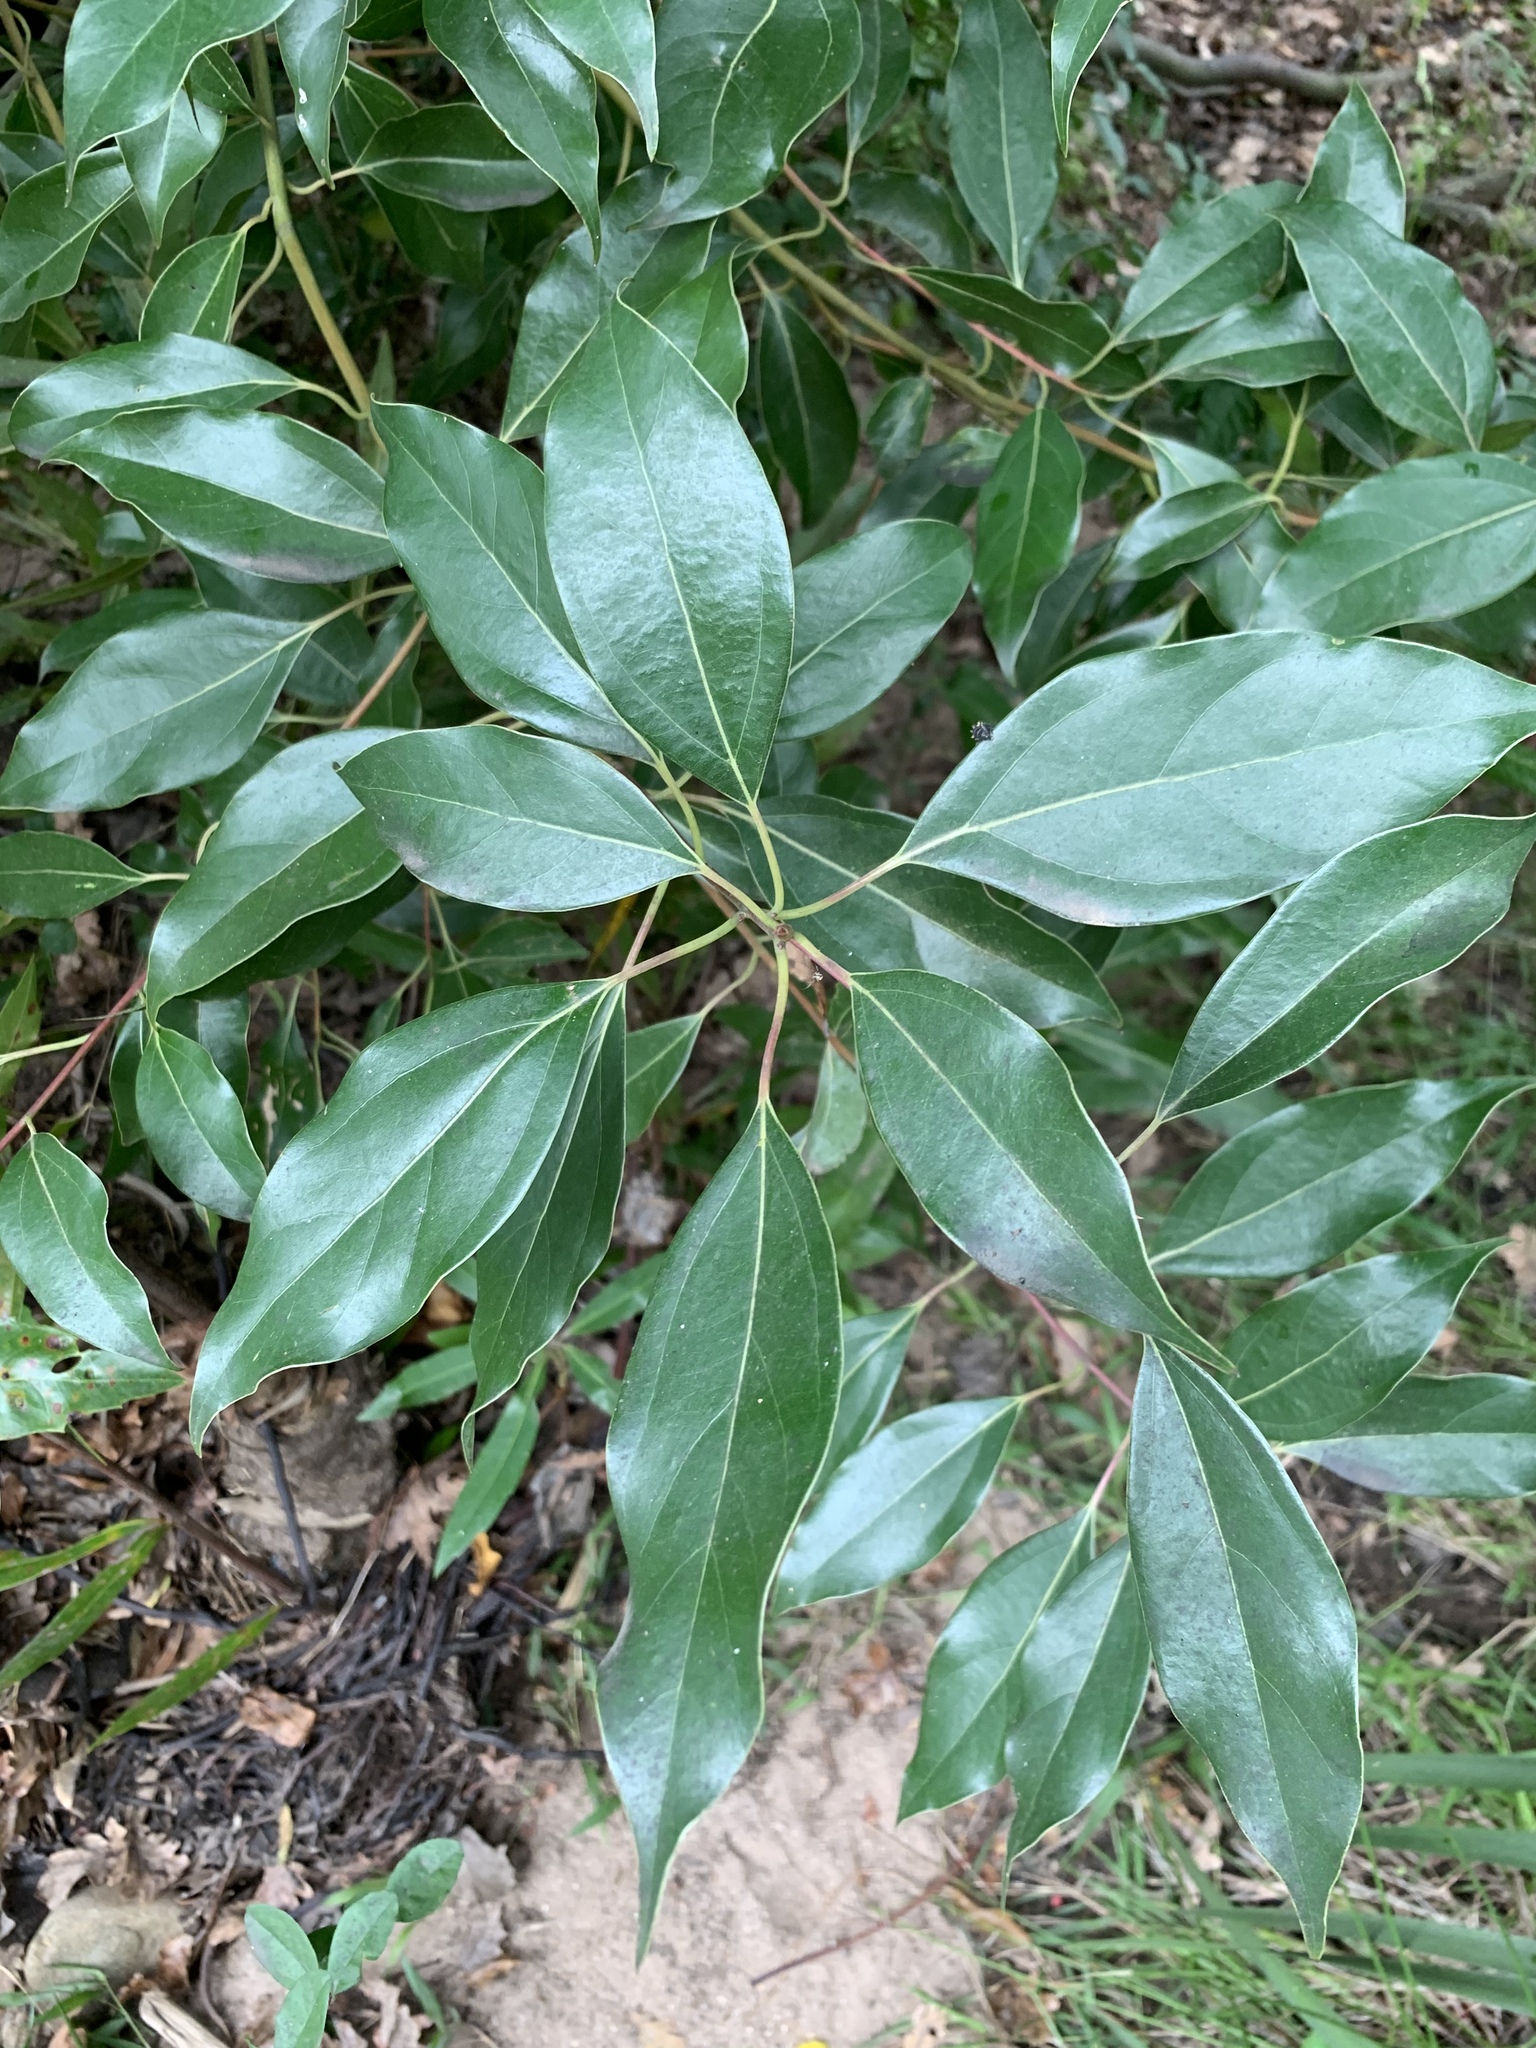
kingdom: Plantae
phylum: Tracheophyta
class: Magnoliopsida
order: Laurales
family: Lauraceae
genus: Cinnamomum
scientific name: Cinnamomum camphora
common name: Camphortree
